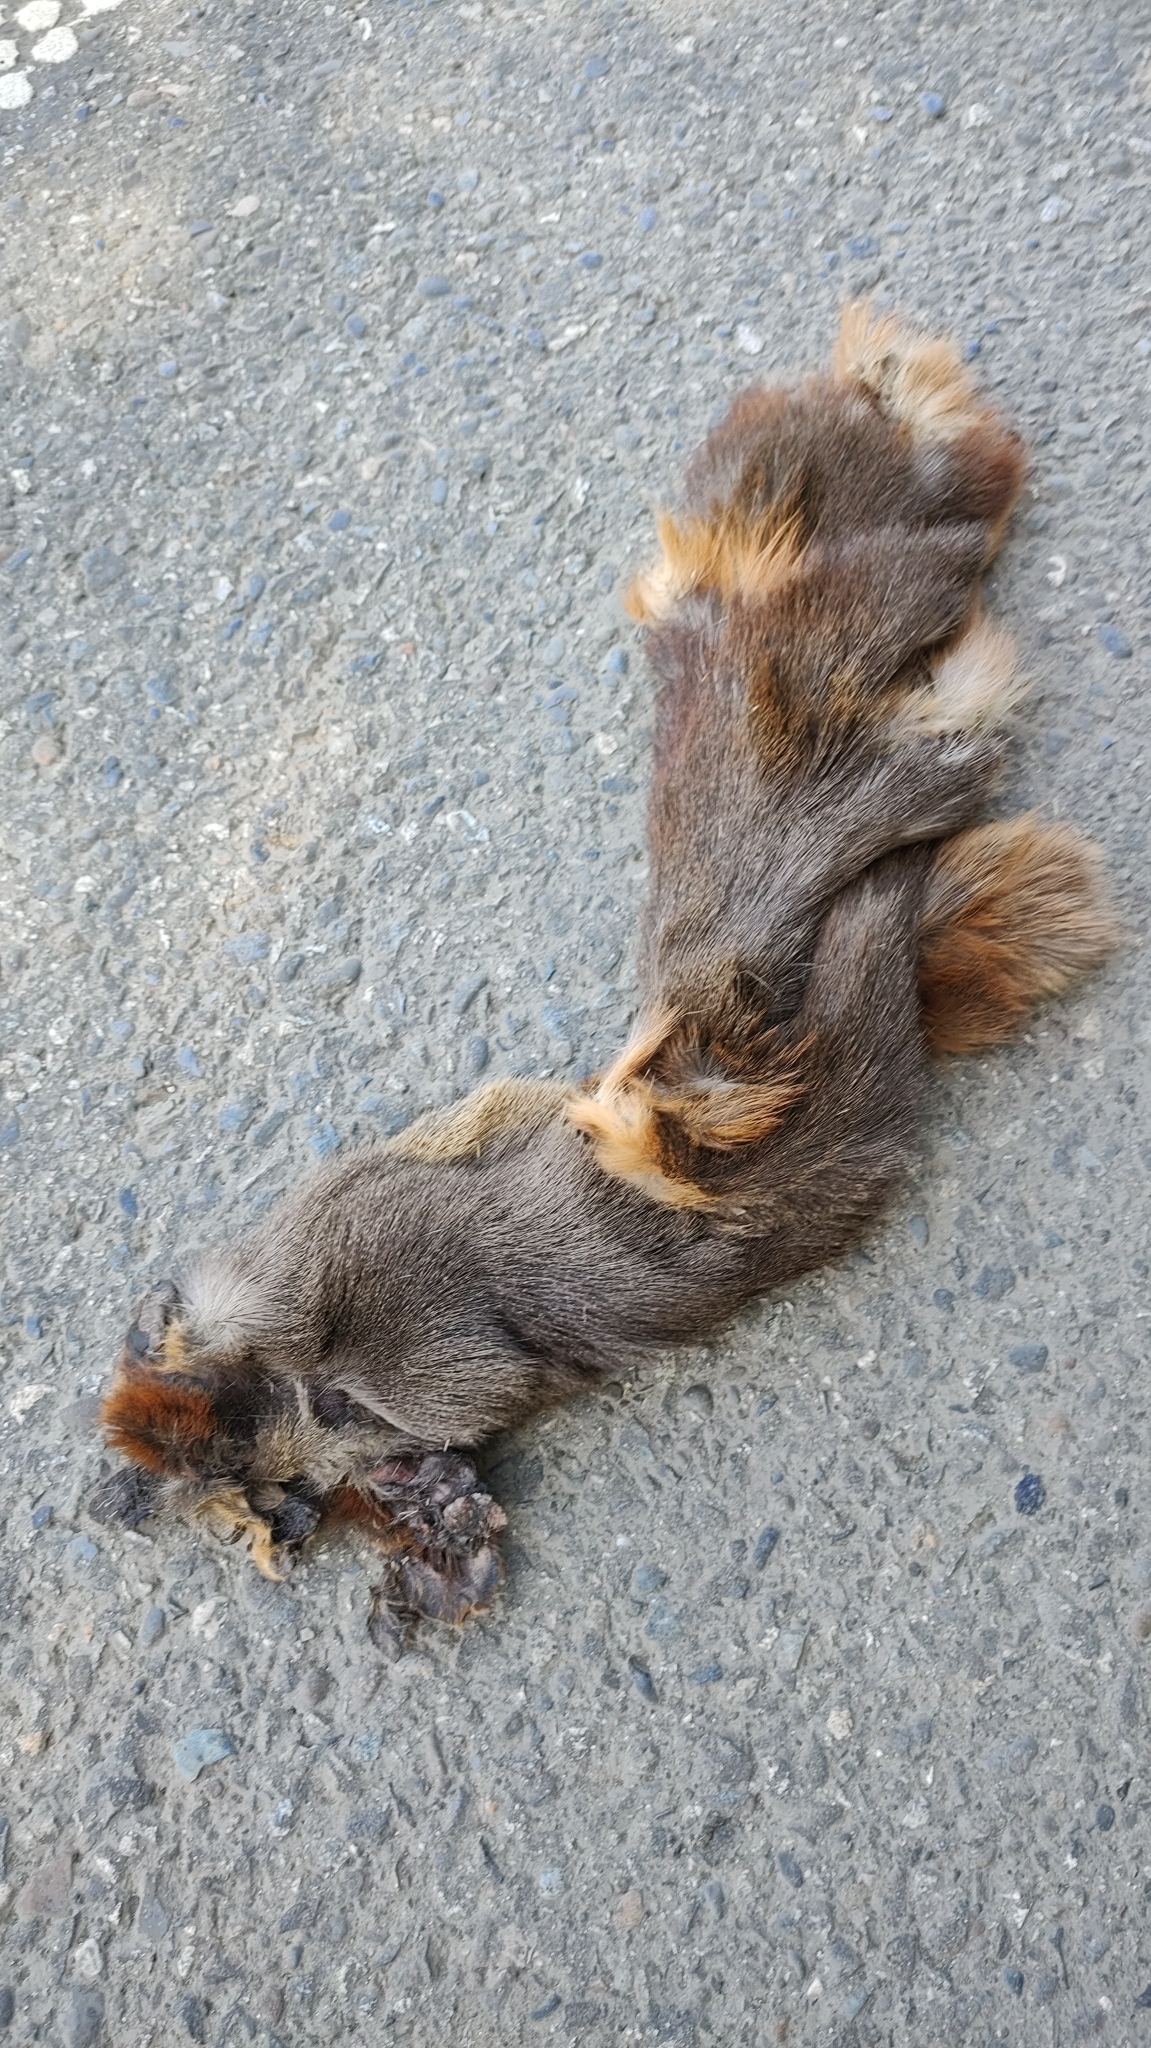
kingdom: Animalia
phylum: Chordata
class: Mammalia
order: Artiodactyla
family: Cervidae
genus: Pudu
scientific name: Pudu puda
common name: Southern pudu
